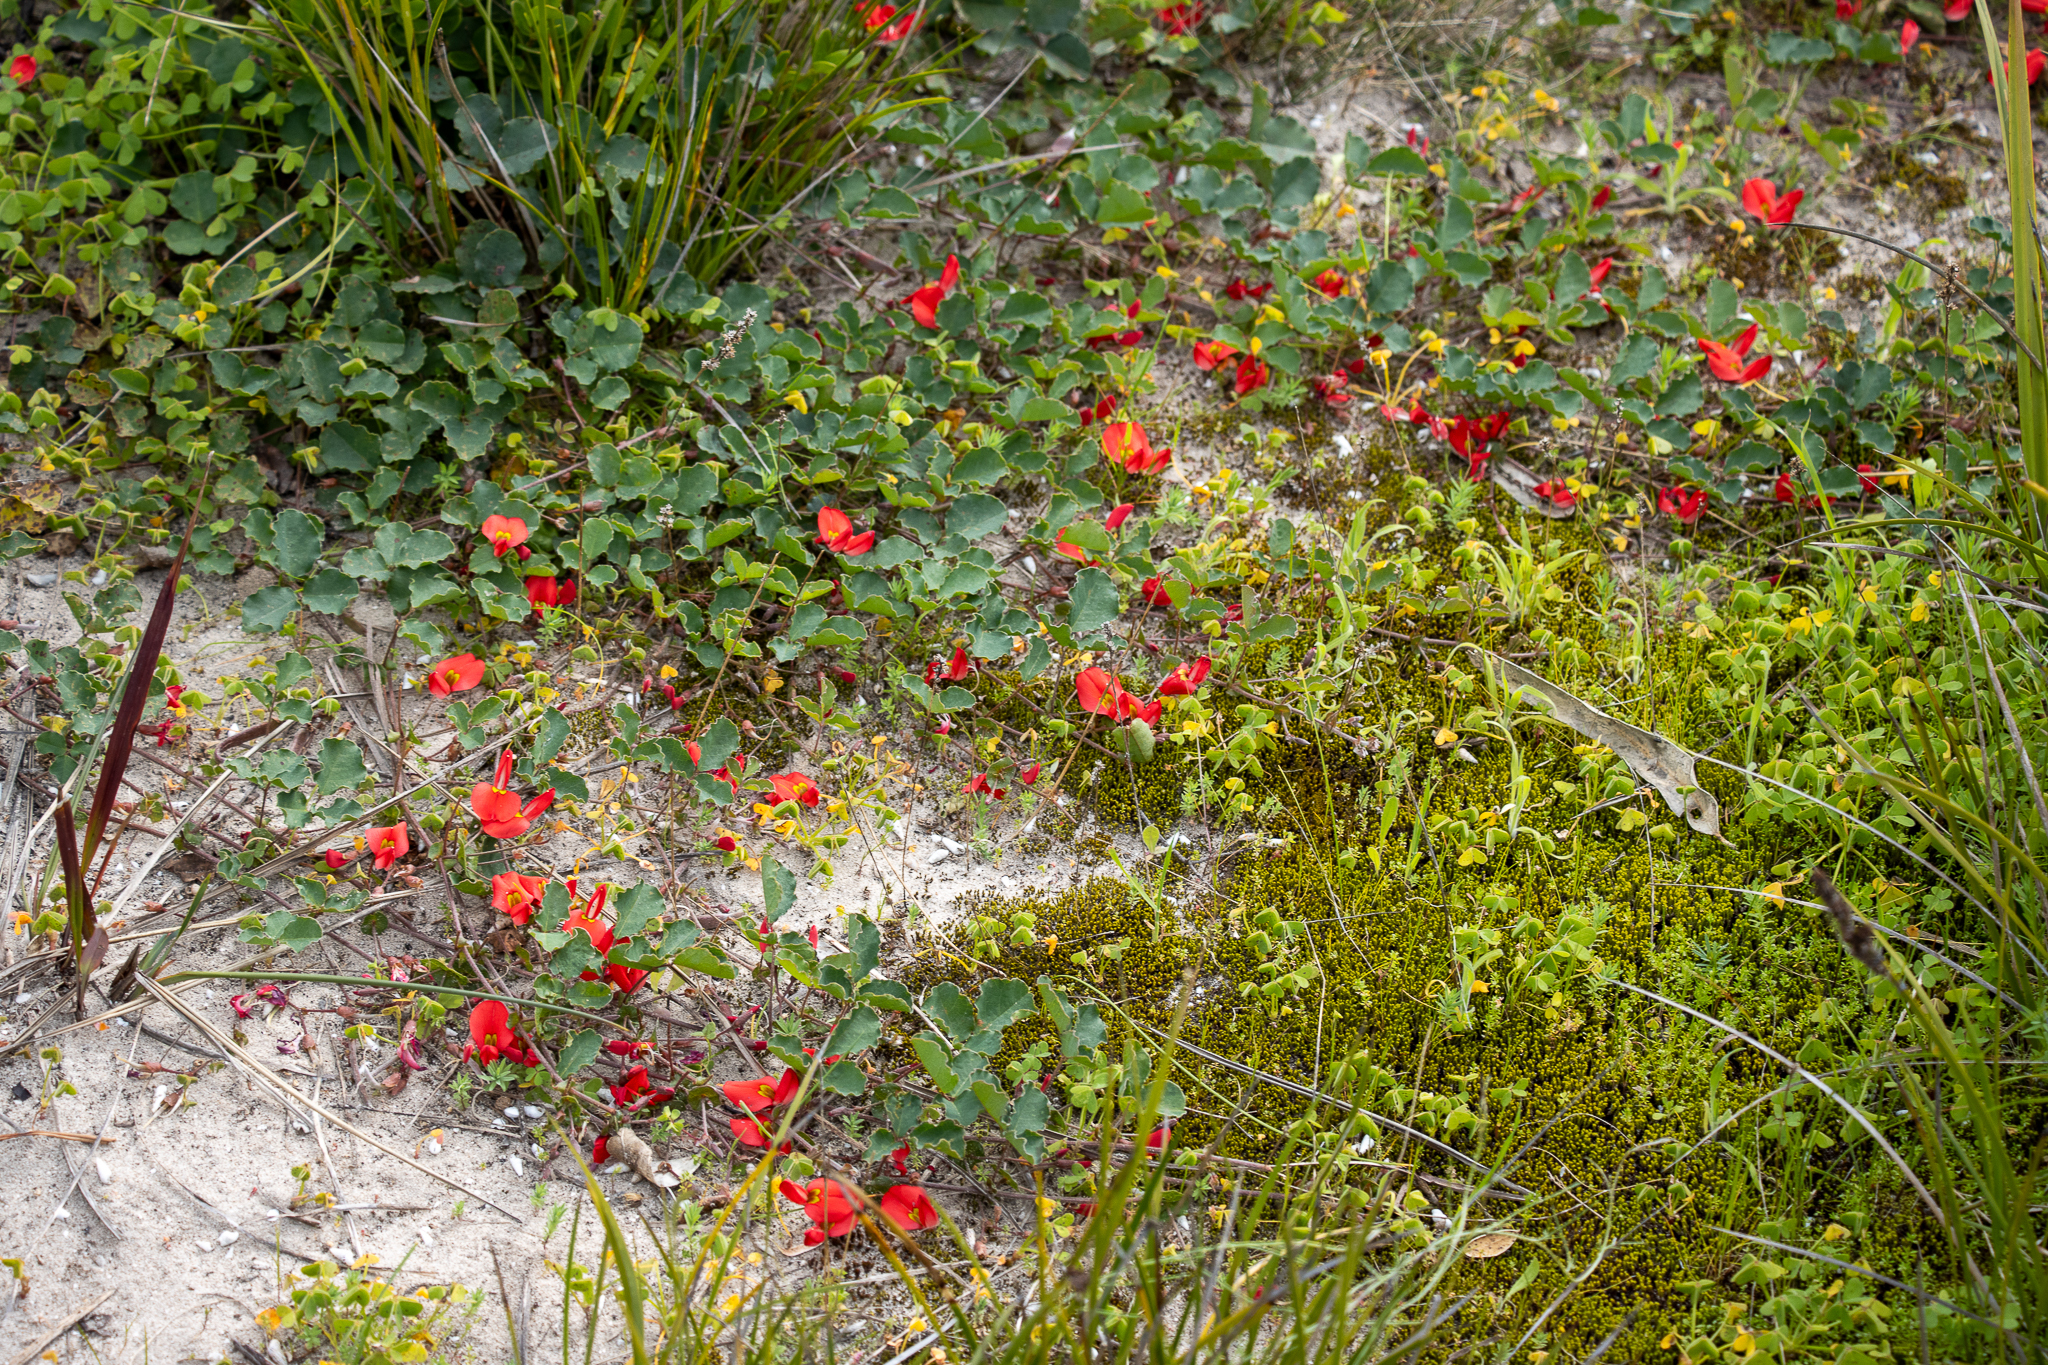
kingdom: Plantae
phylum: Tracheophyta
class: Magnoliopsida
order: Fabales
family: Fabaceae
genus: Kennedia
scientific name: Kennedia prostrata
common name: Running-postman
